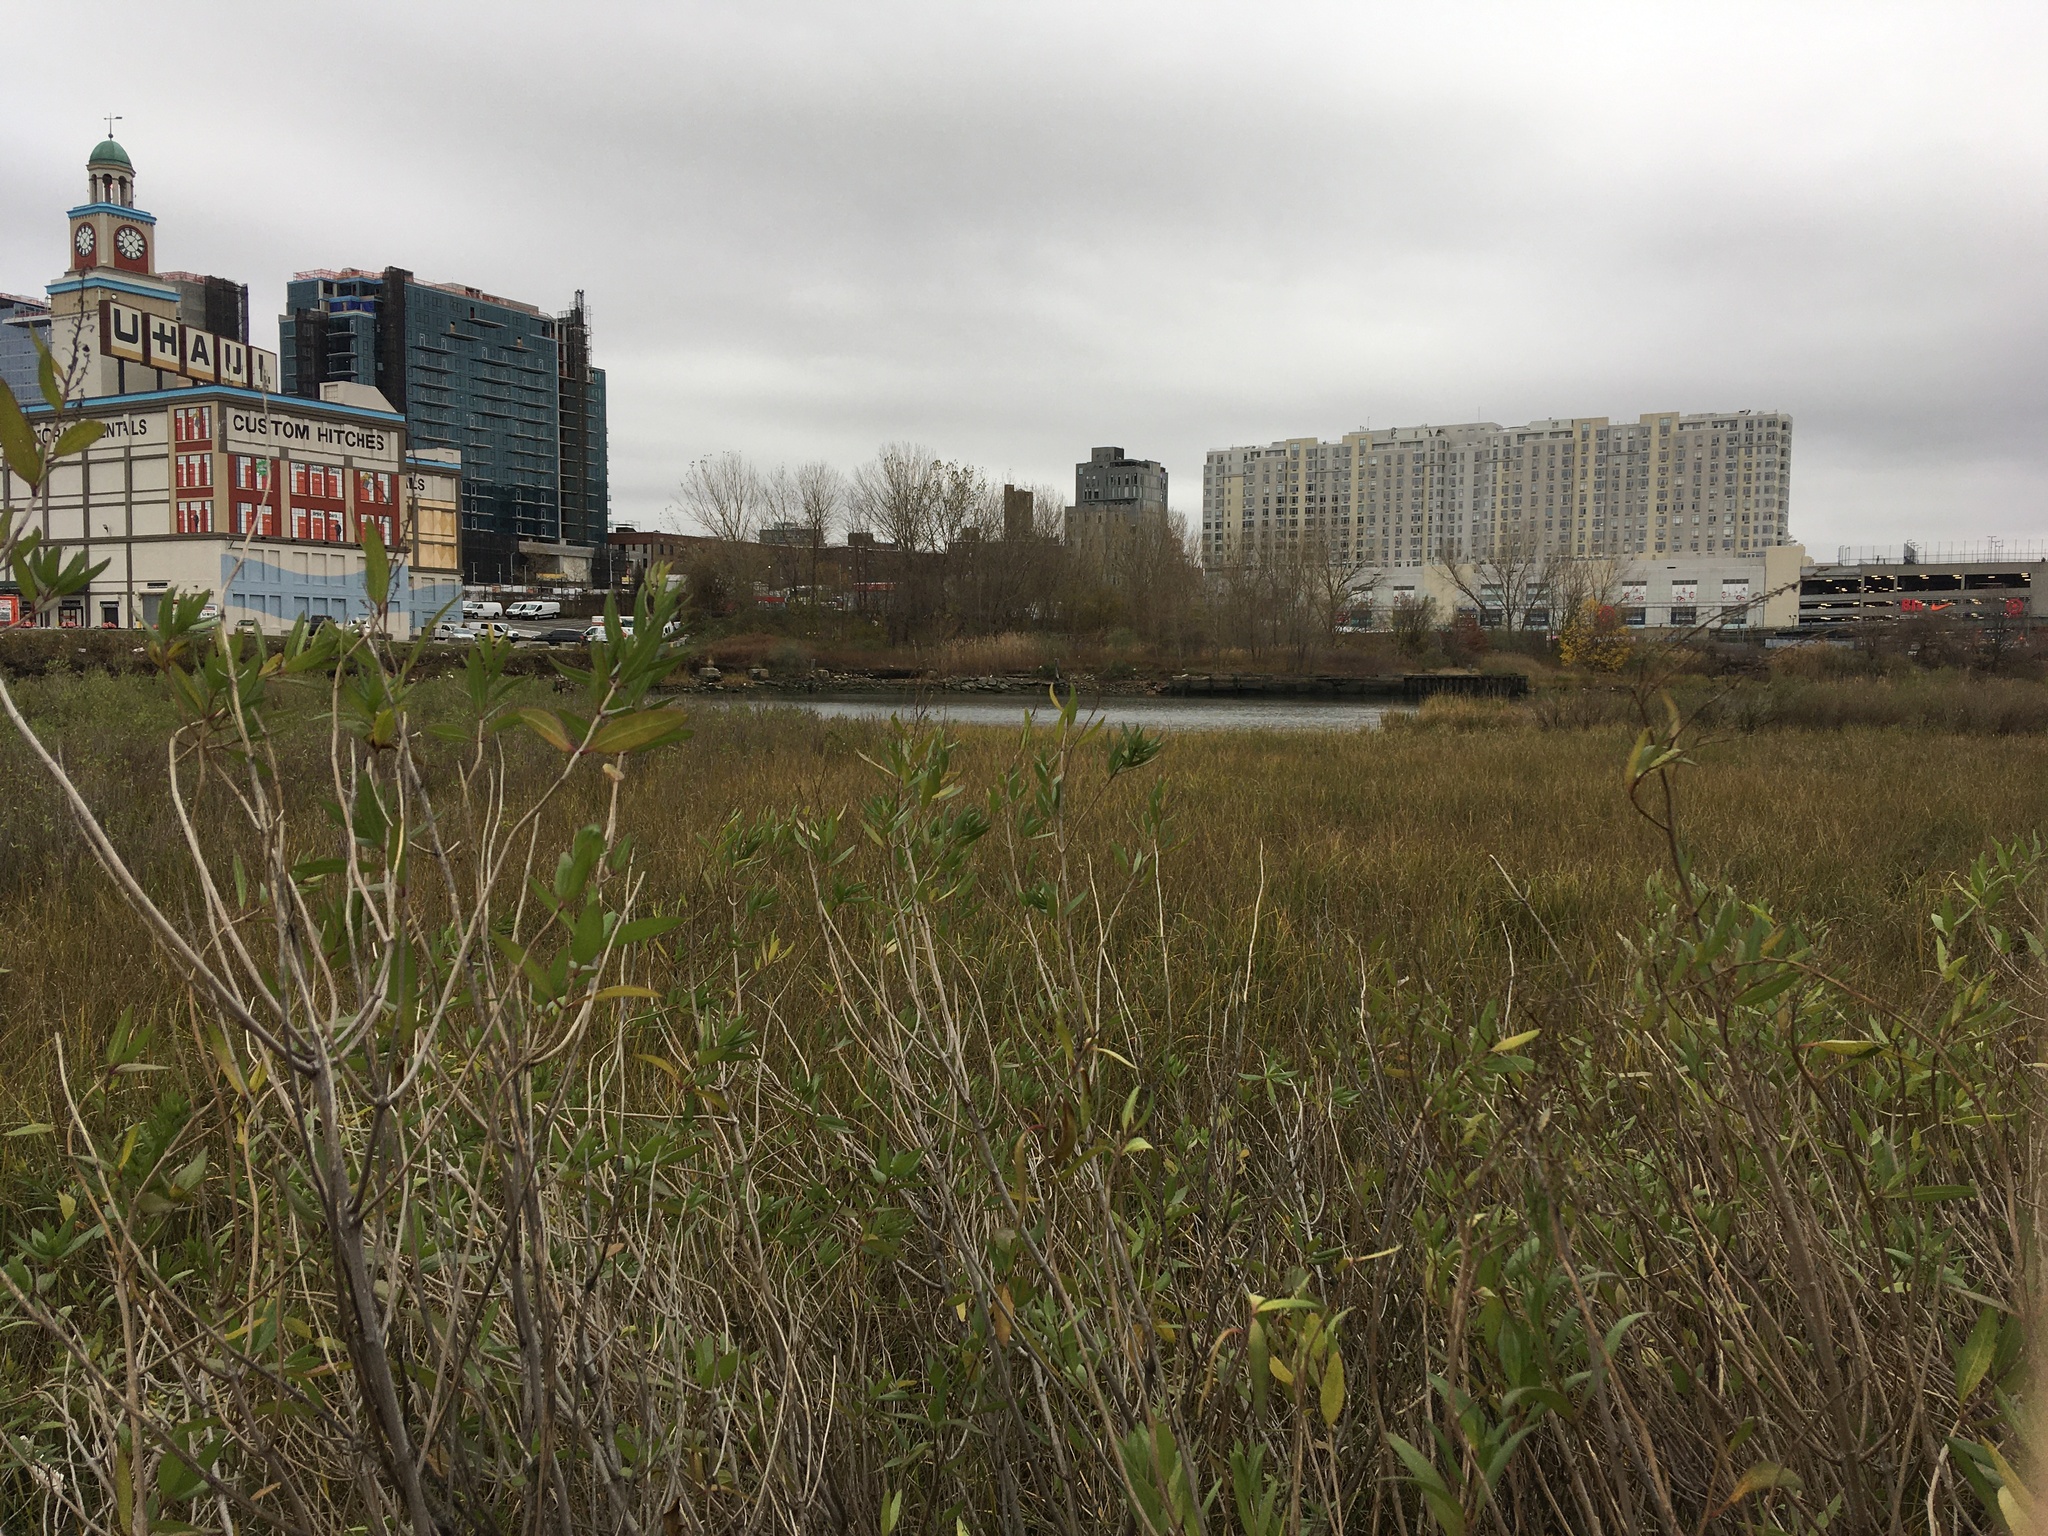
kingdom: Plantae
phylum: Tracheophyta
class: Magnoliopsida
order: Asterales
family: Asteraceae
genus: Iva
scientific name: Iva frutescens
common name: Big-leaved marsh-elder
